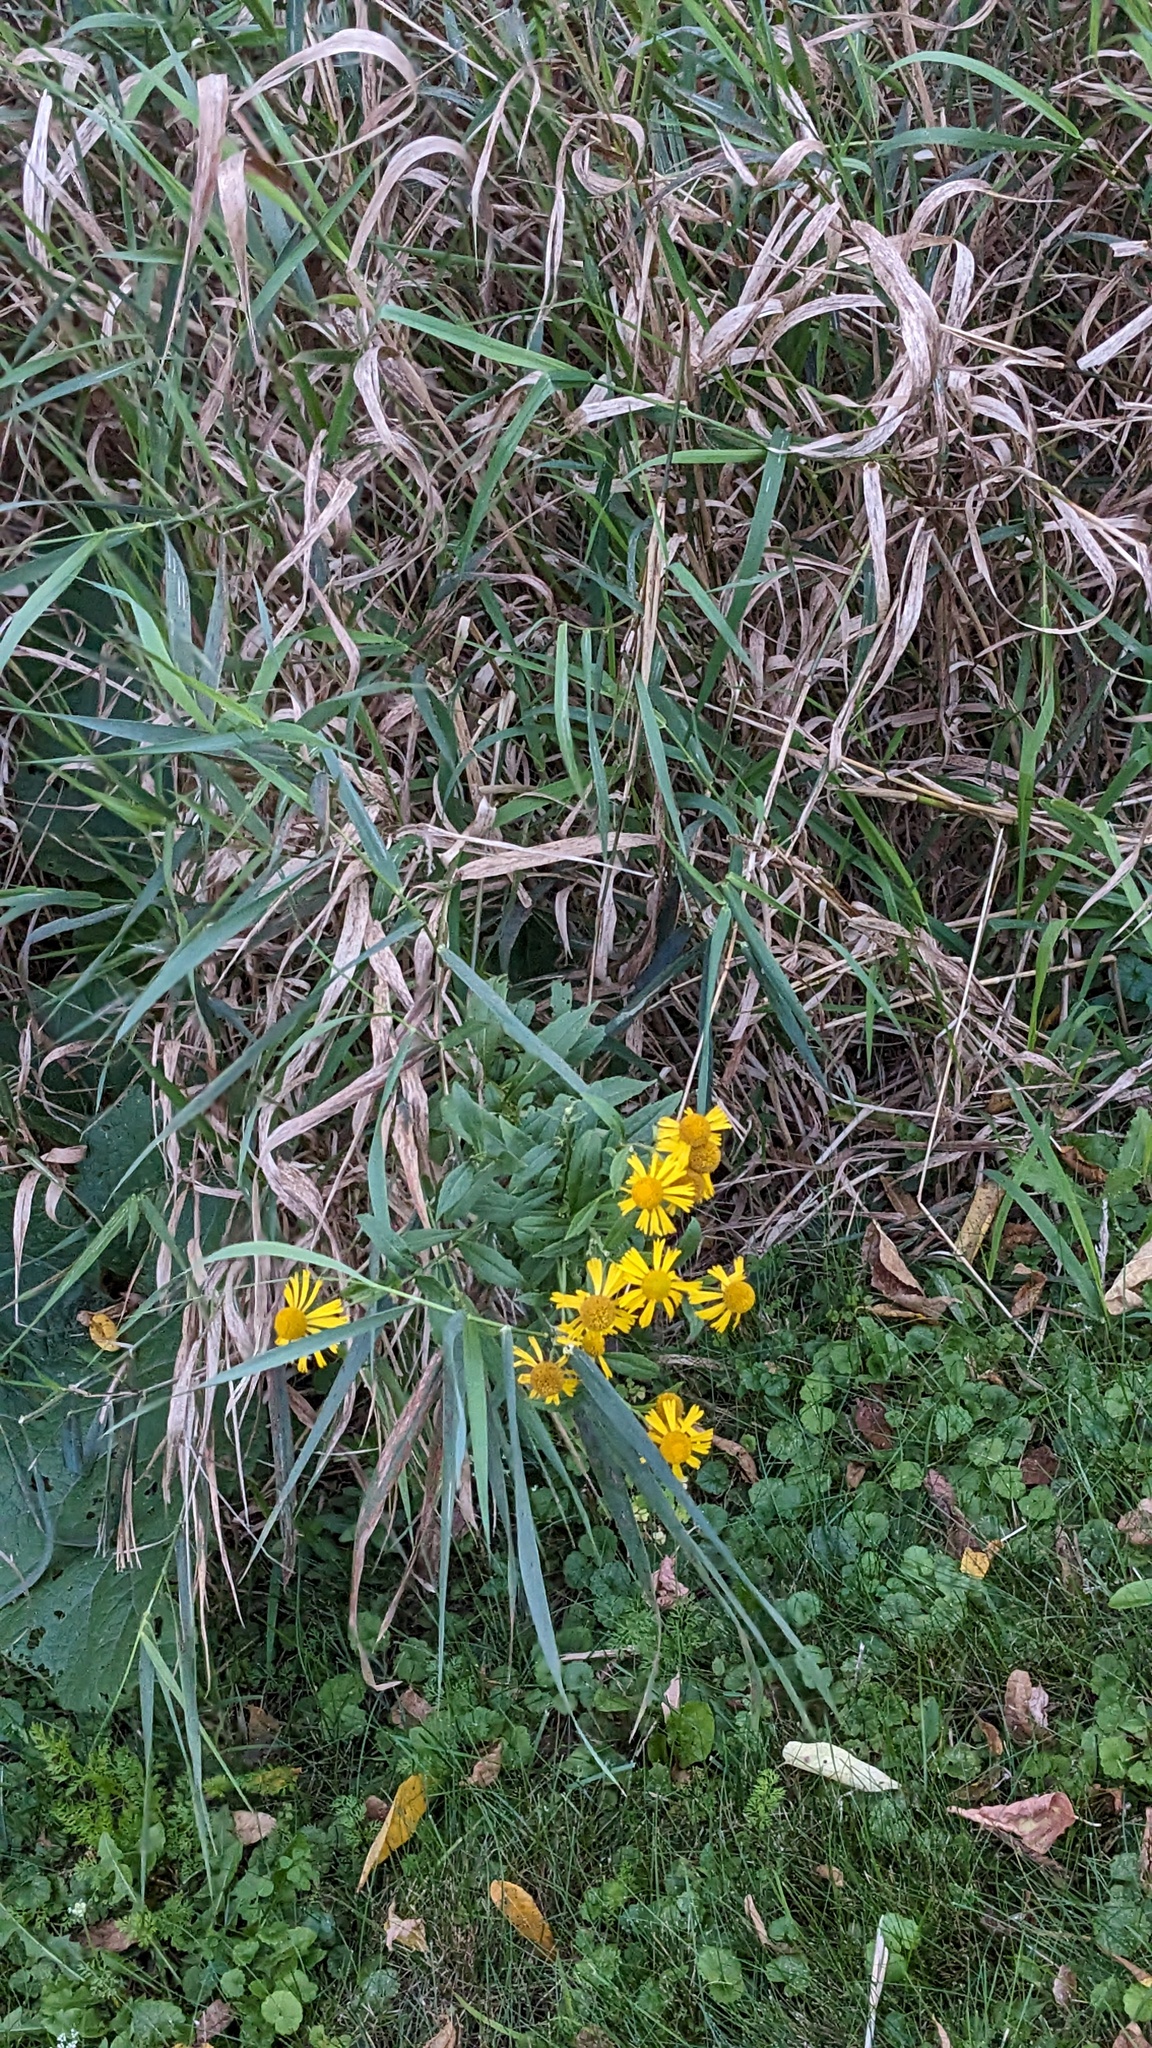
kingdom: Plantae
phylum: Tracheophyta
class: Magnoliopsida
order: Asterales
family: Asteraceae
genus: Helenium
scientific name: Helenium autumnale
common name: Sneezeweed
